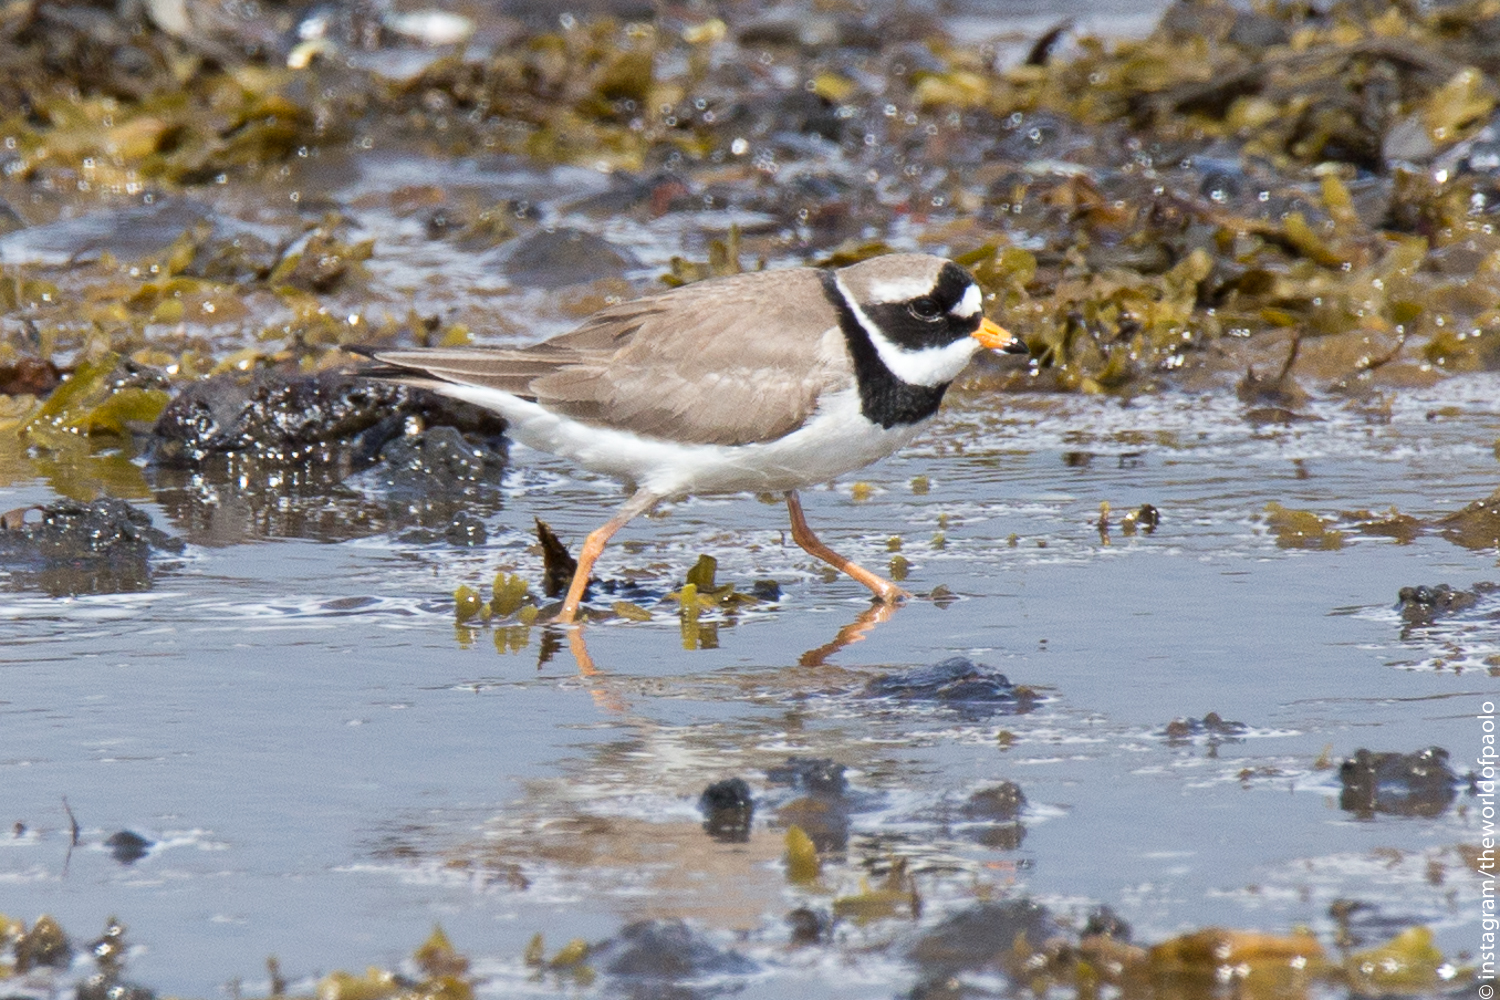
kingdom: Animalia
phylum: Chordata
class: Aves
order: Charadriiformes
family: Charadriidae
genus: Charadrius
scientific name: Charadrius hiaticula
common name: Common ringed plover
